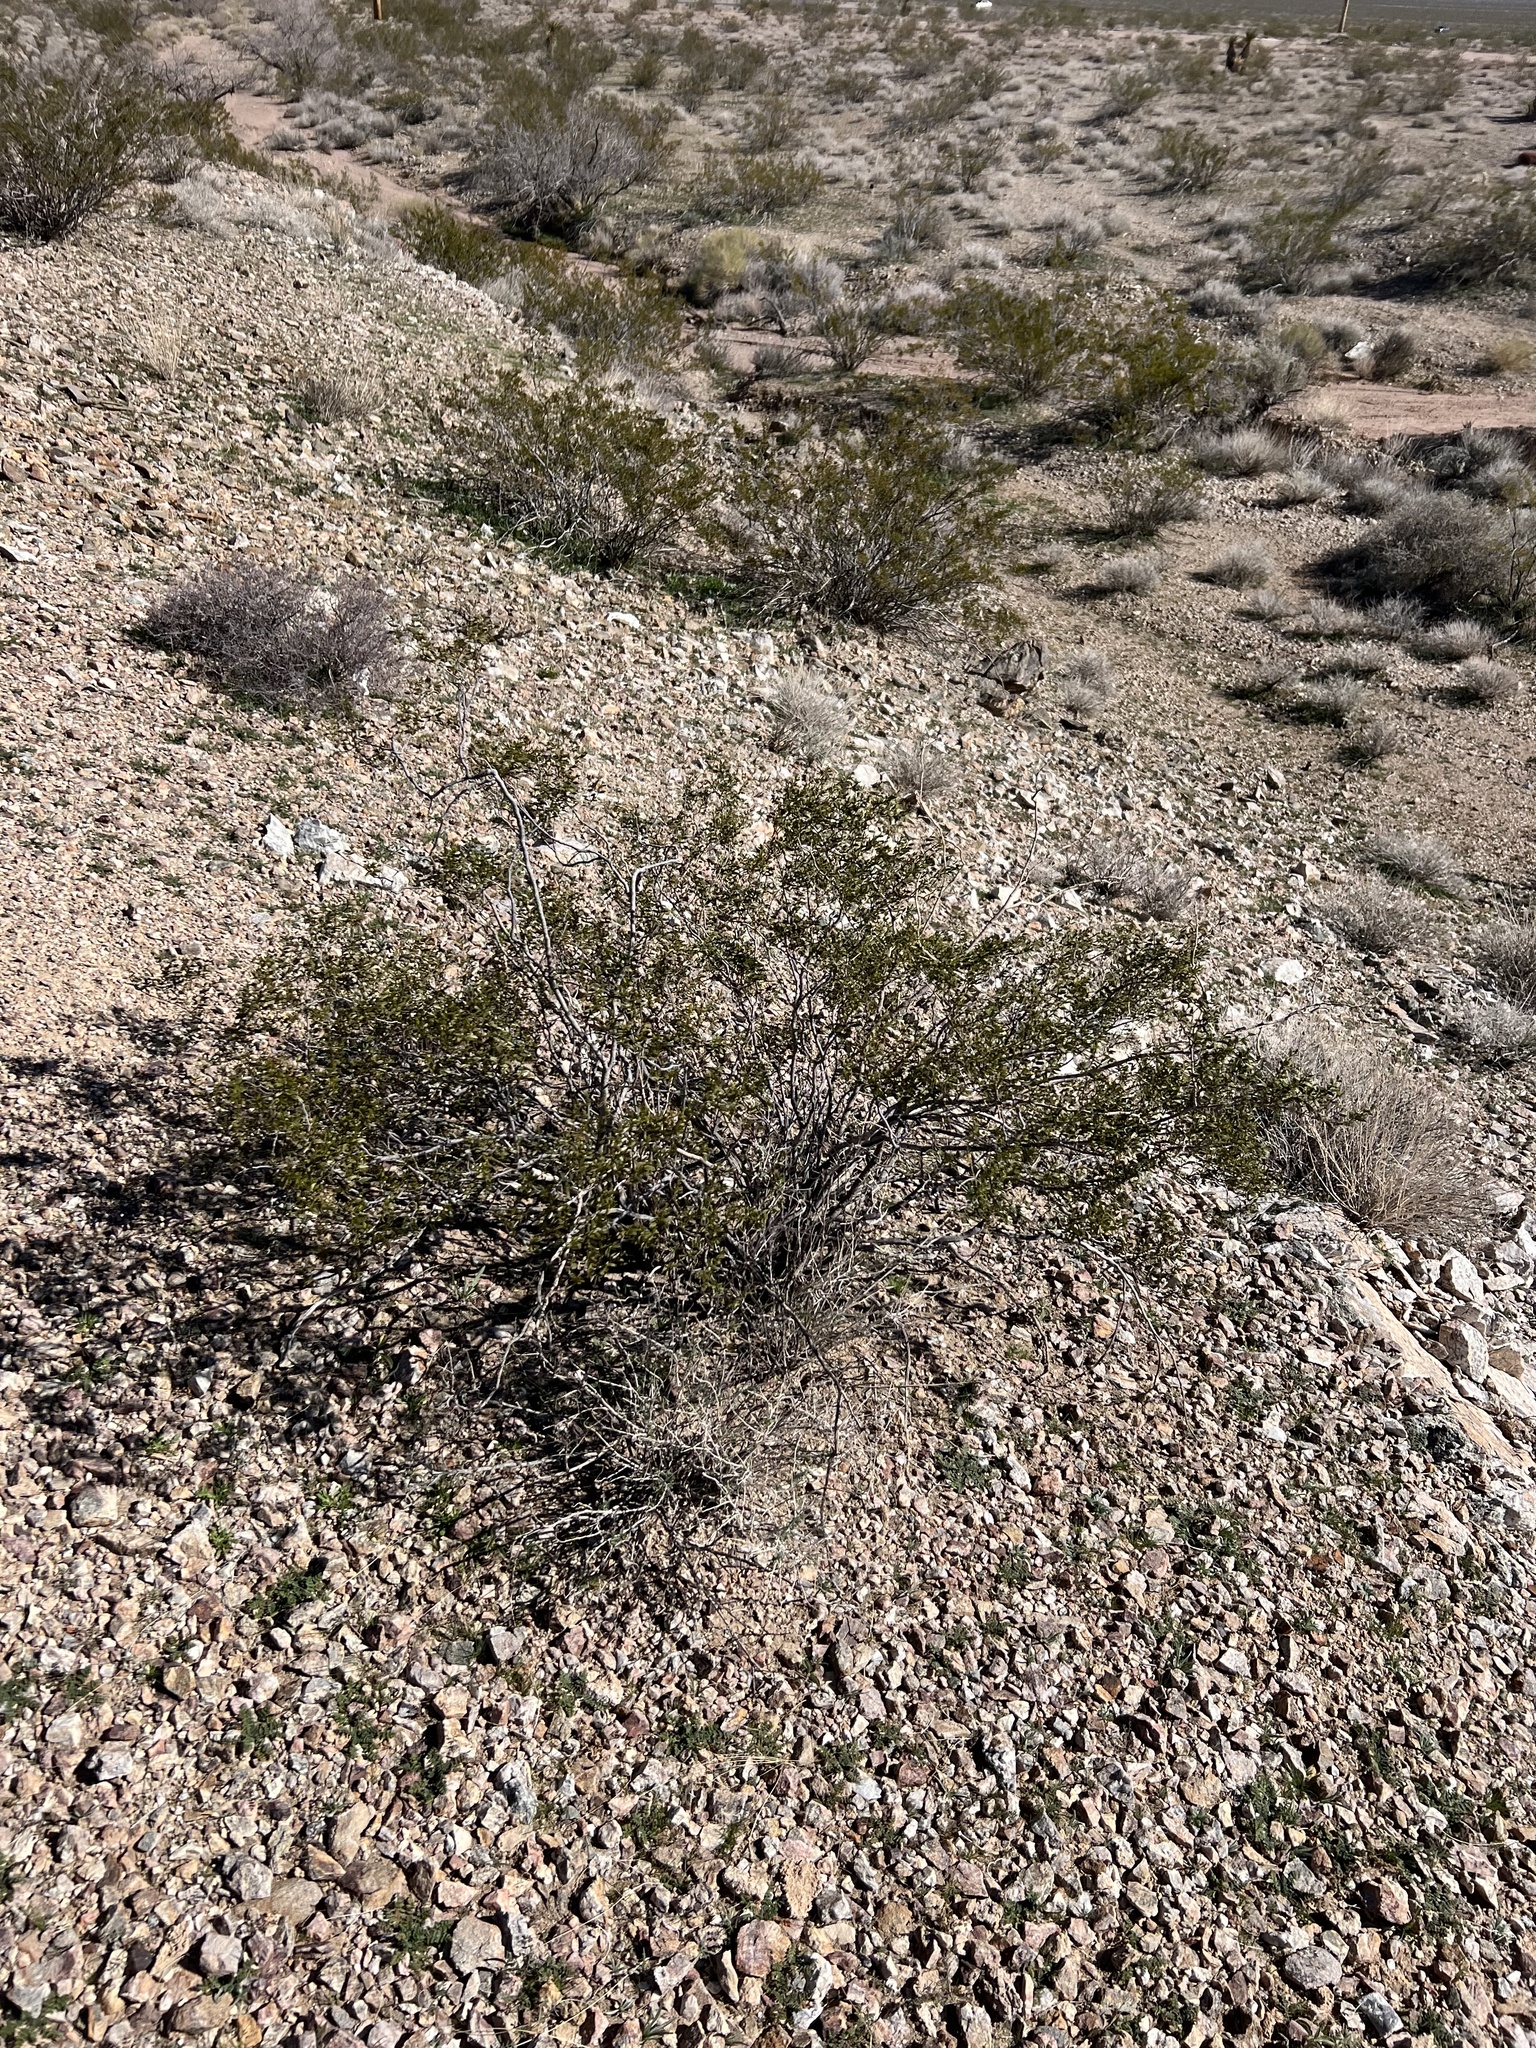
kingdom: Plantae
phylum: Tracheophyta
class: Magnoliopsida
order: Zygophyllales
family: Zygophyllaceae
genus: Larrea
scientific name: Larrea tridentata
